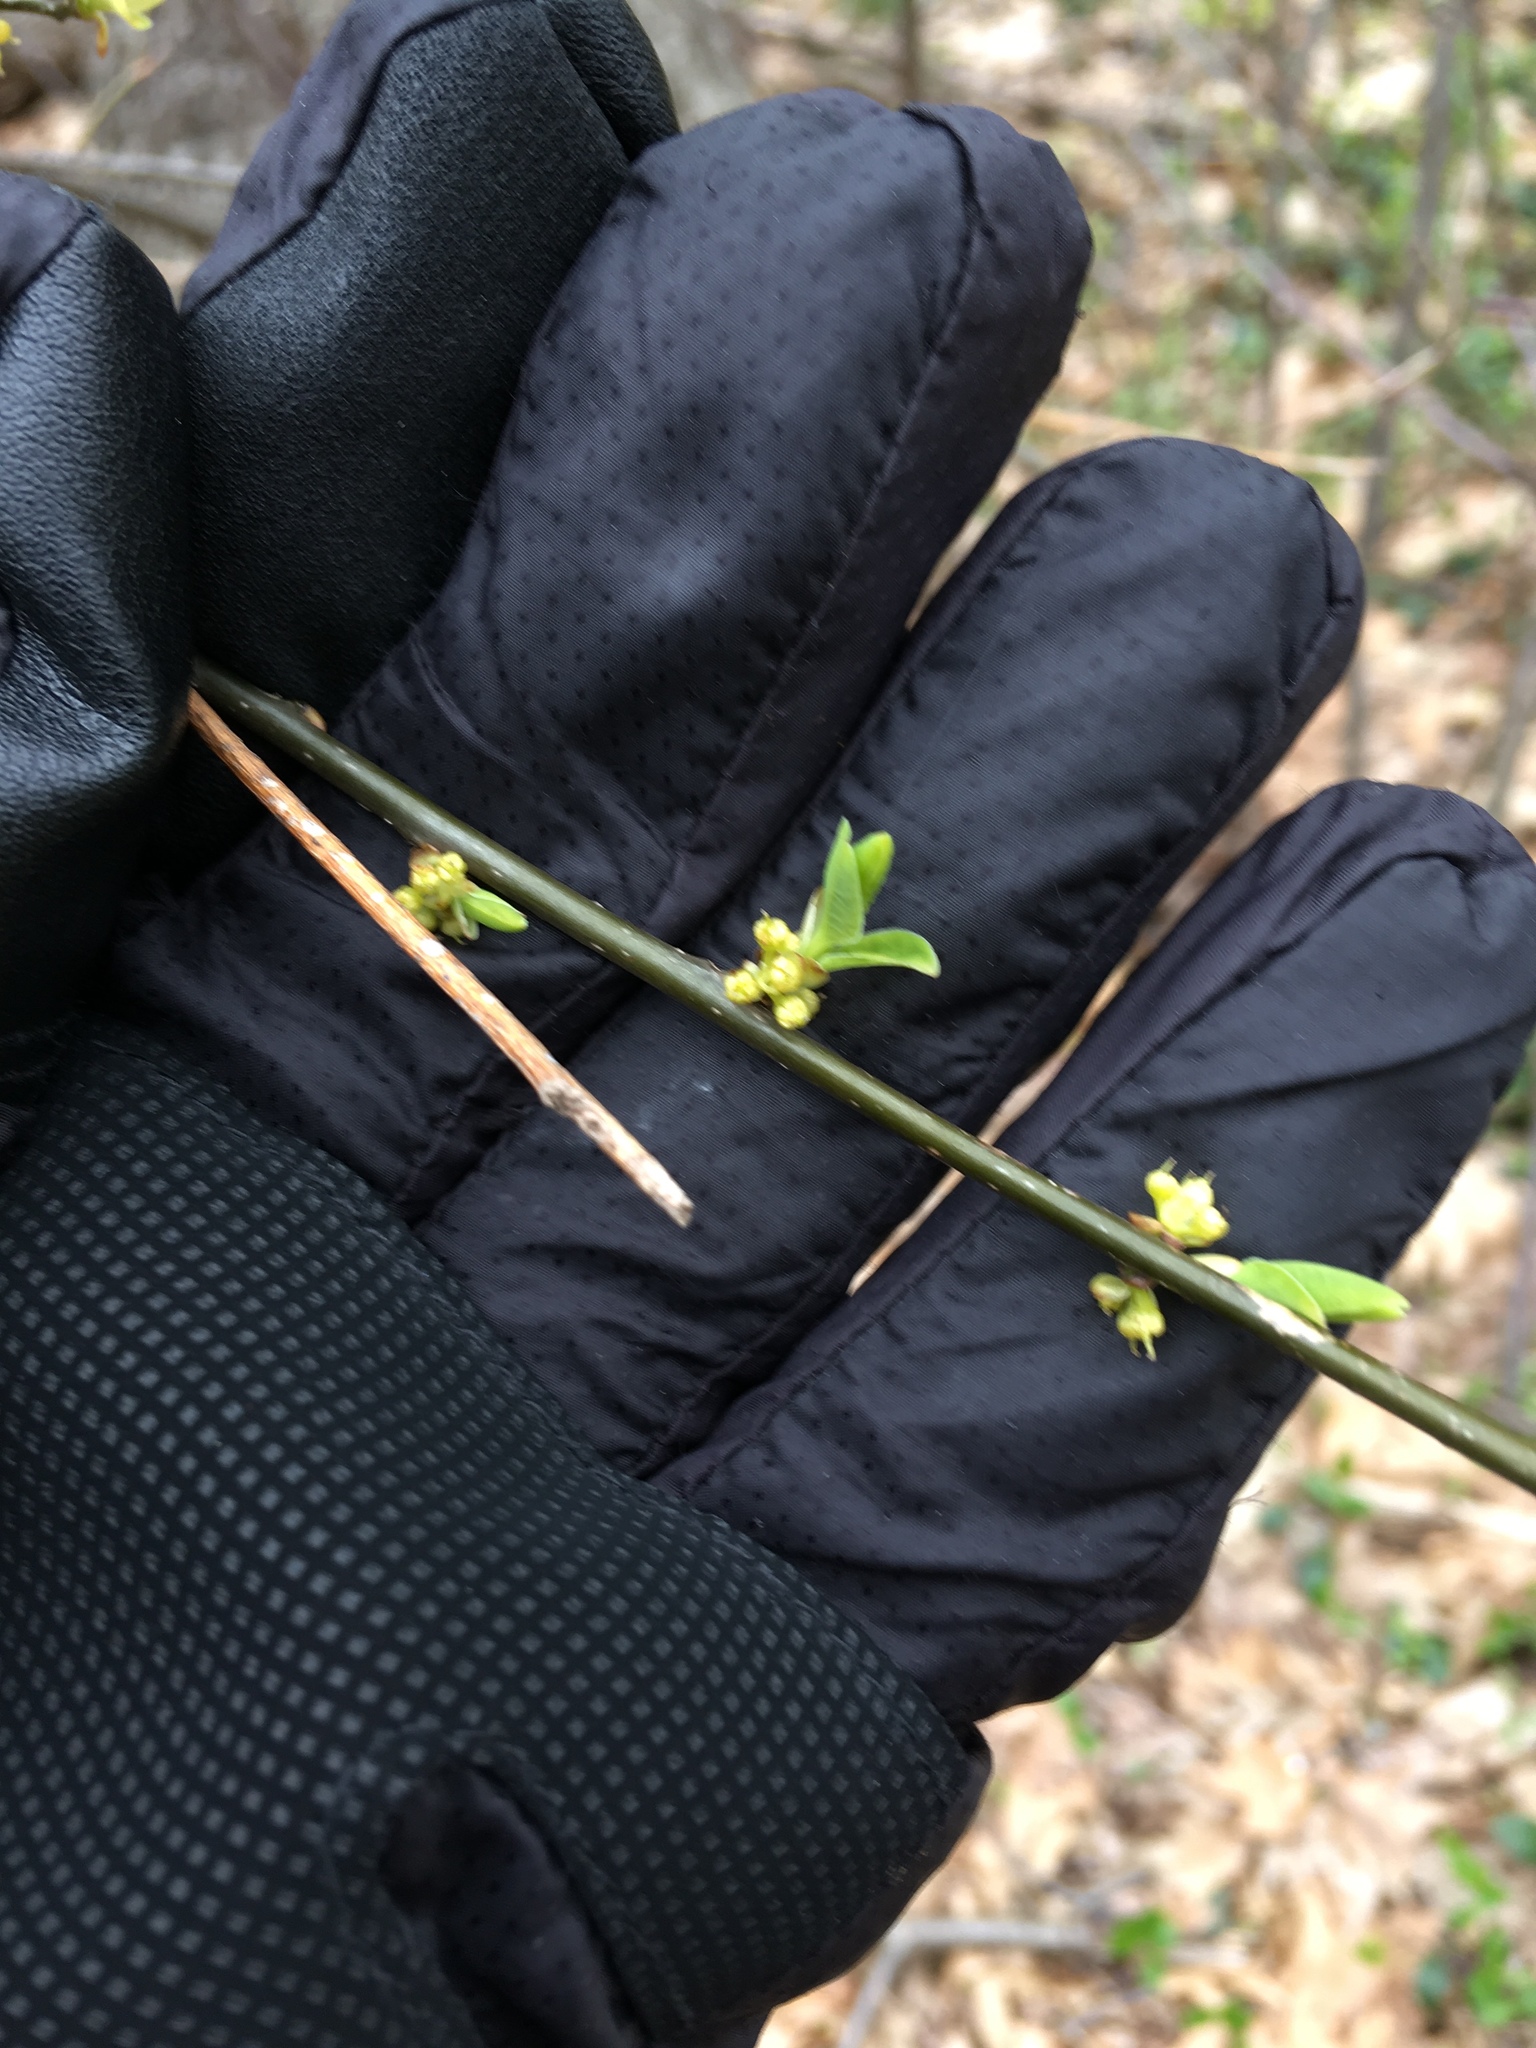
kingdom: Plantae
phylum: Tracheophyta
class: Magnoliopsida
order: Laurales
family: Lauraceae
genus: Lindera
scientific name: Lindera benzoin
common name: Spicebush
